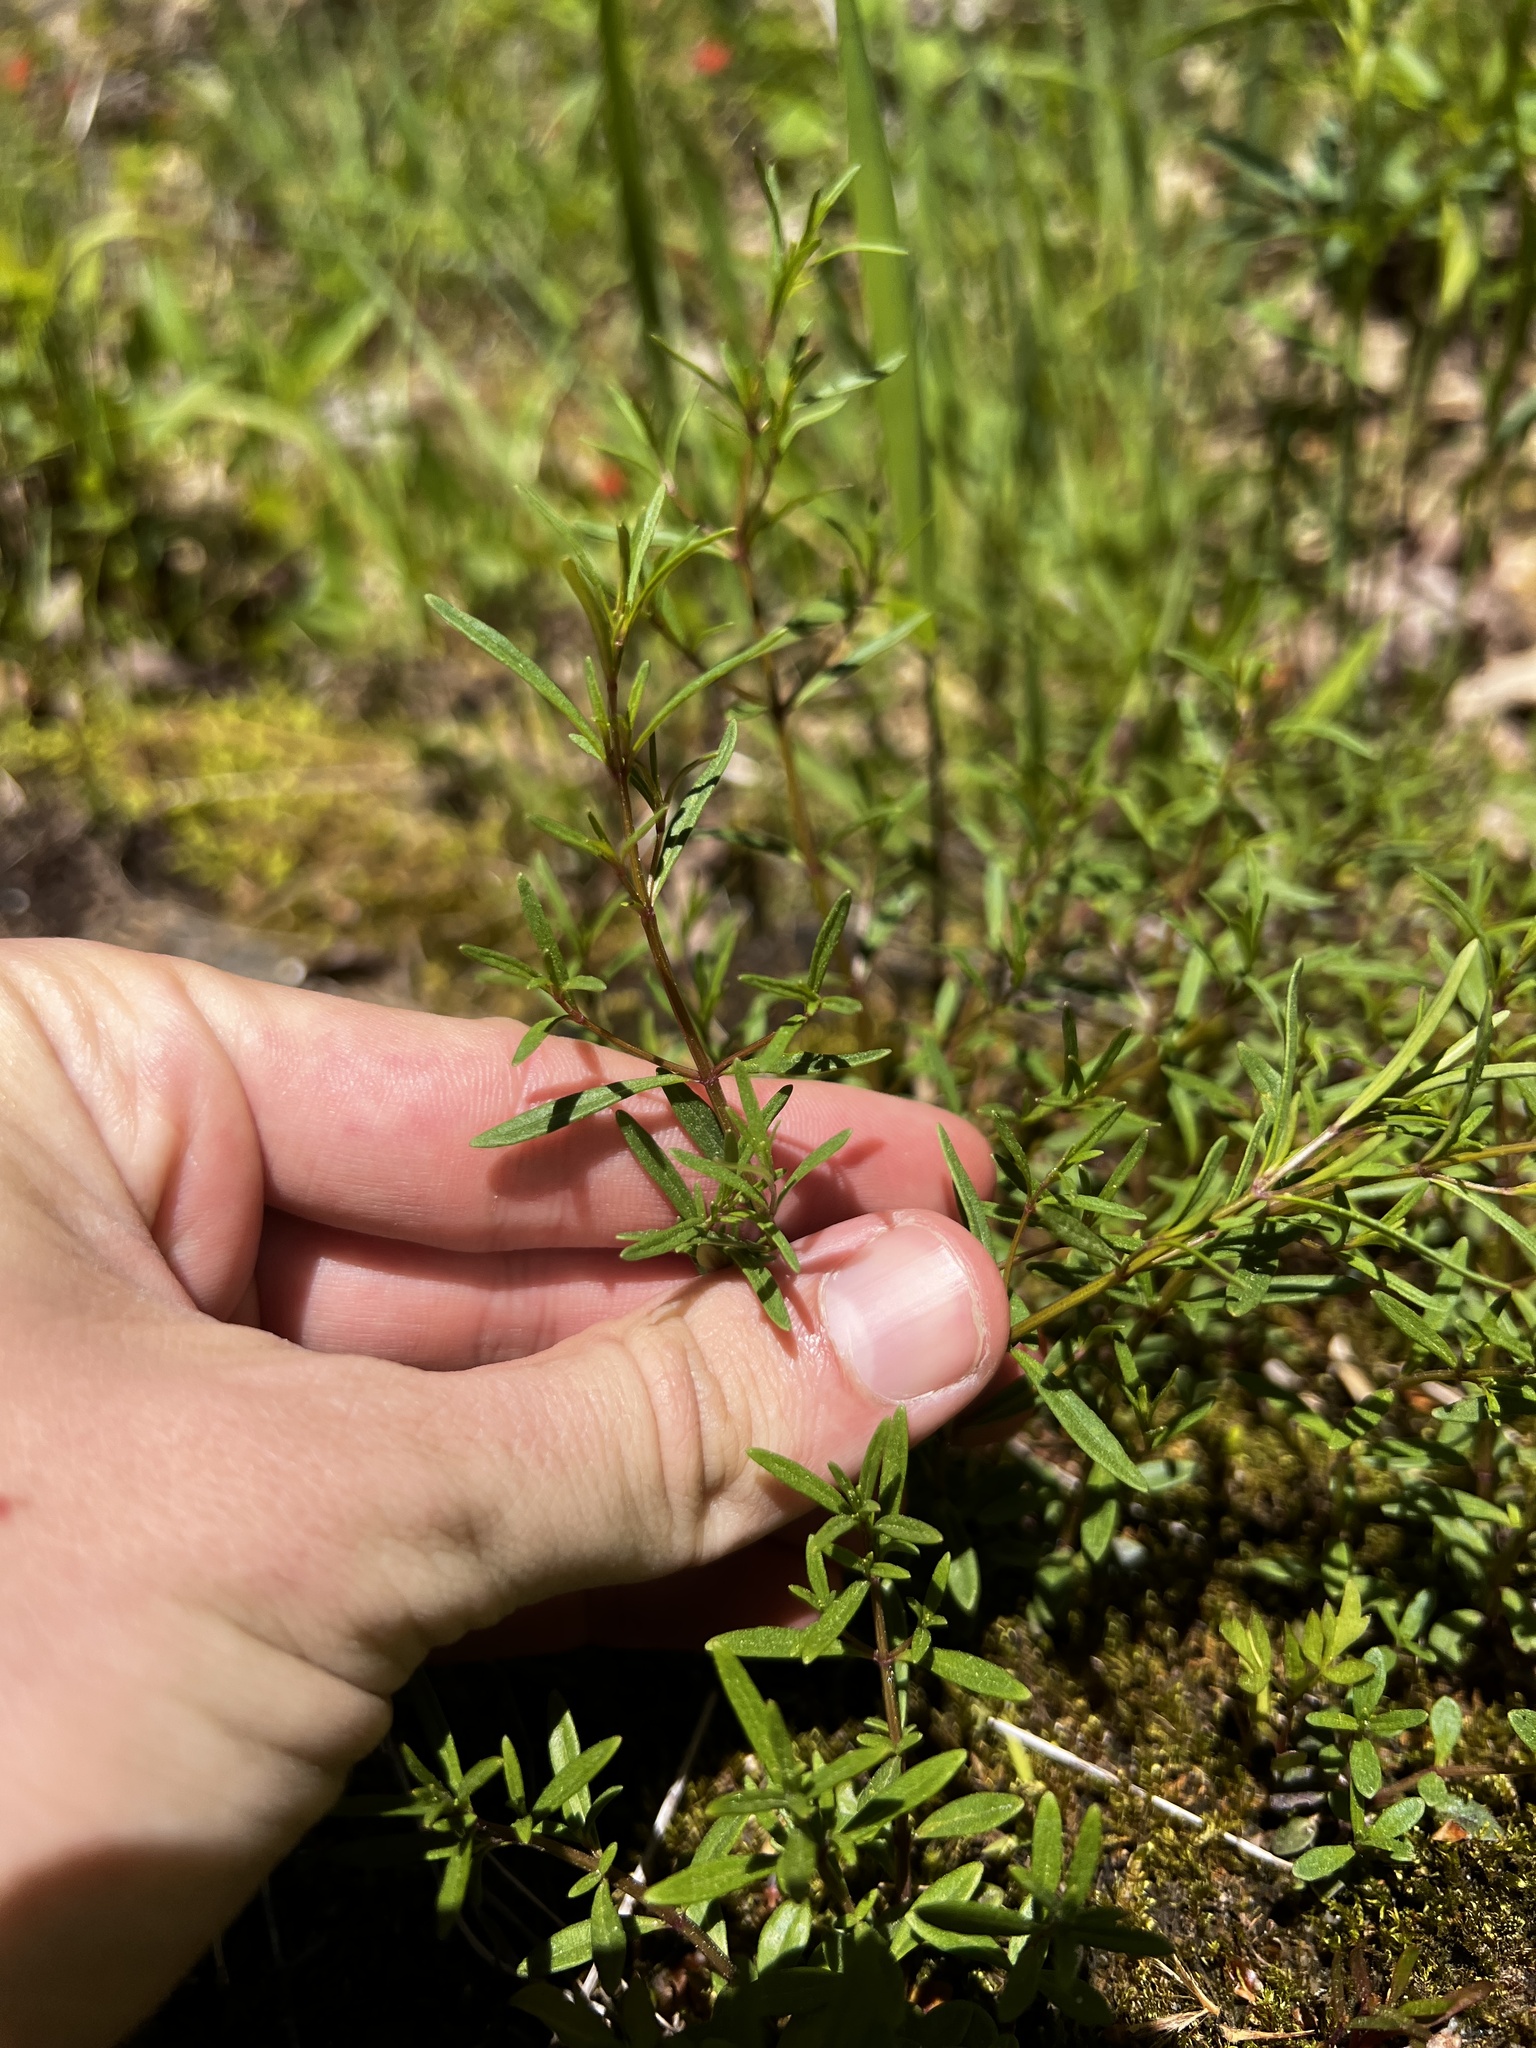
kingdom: Plantae
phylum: Tracheophyta
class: Magnoliopsida
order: Lamiales
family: Lamiaceae
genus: Clinopodium
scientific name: Clinopodium arkansanum
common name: Limestone calamint
